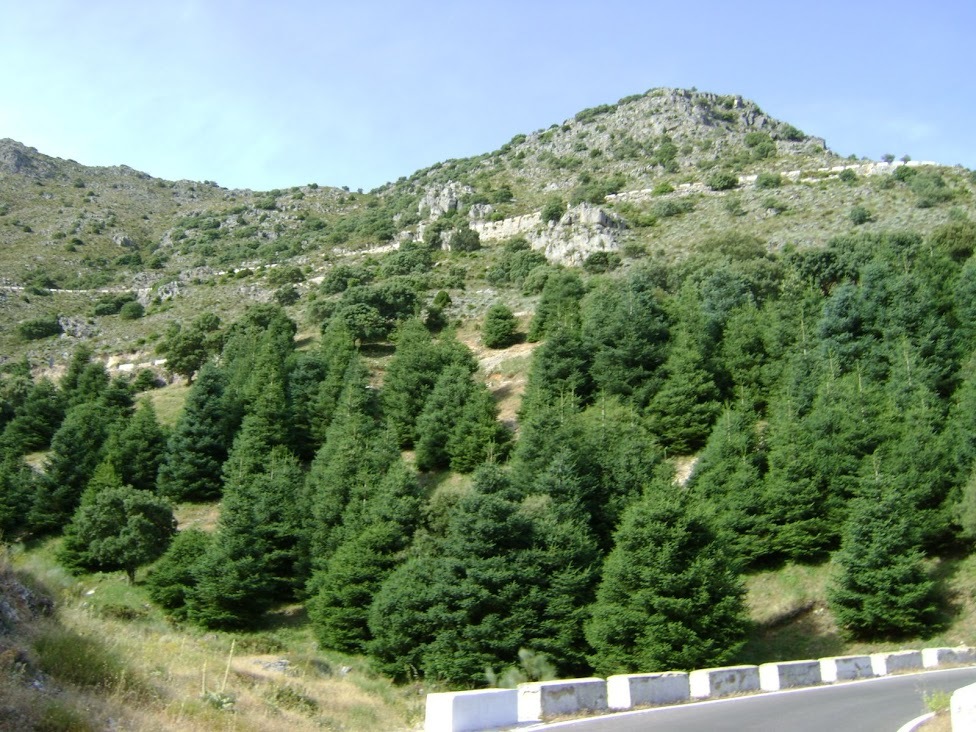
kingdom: Plantae
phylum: Tracheophyta
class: Pinopsida
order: Pinales
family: Pinaceae
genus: Abies
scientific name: Abies pinsapo
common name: Spanish fir
